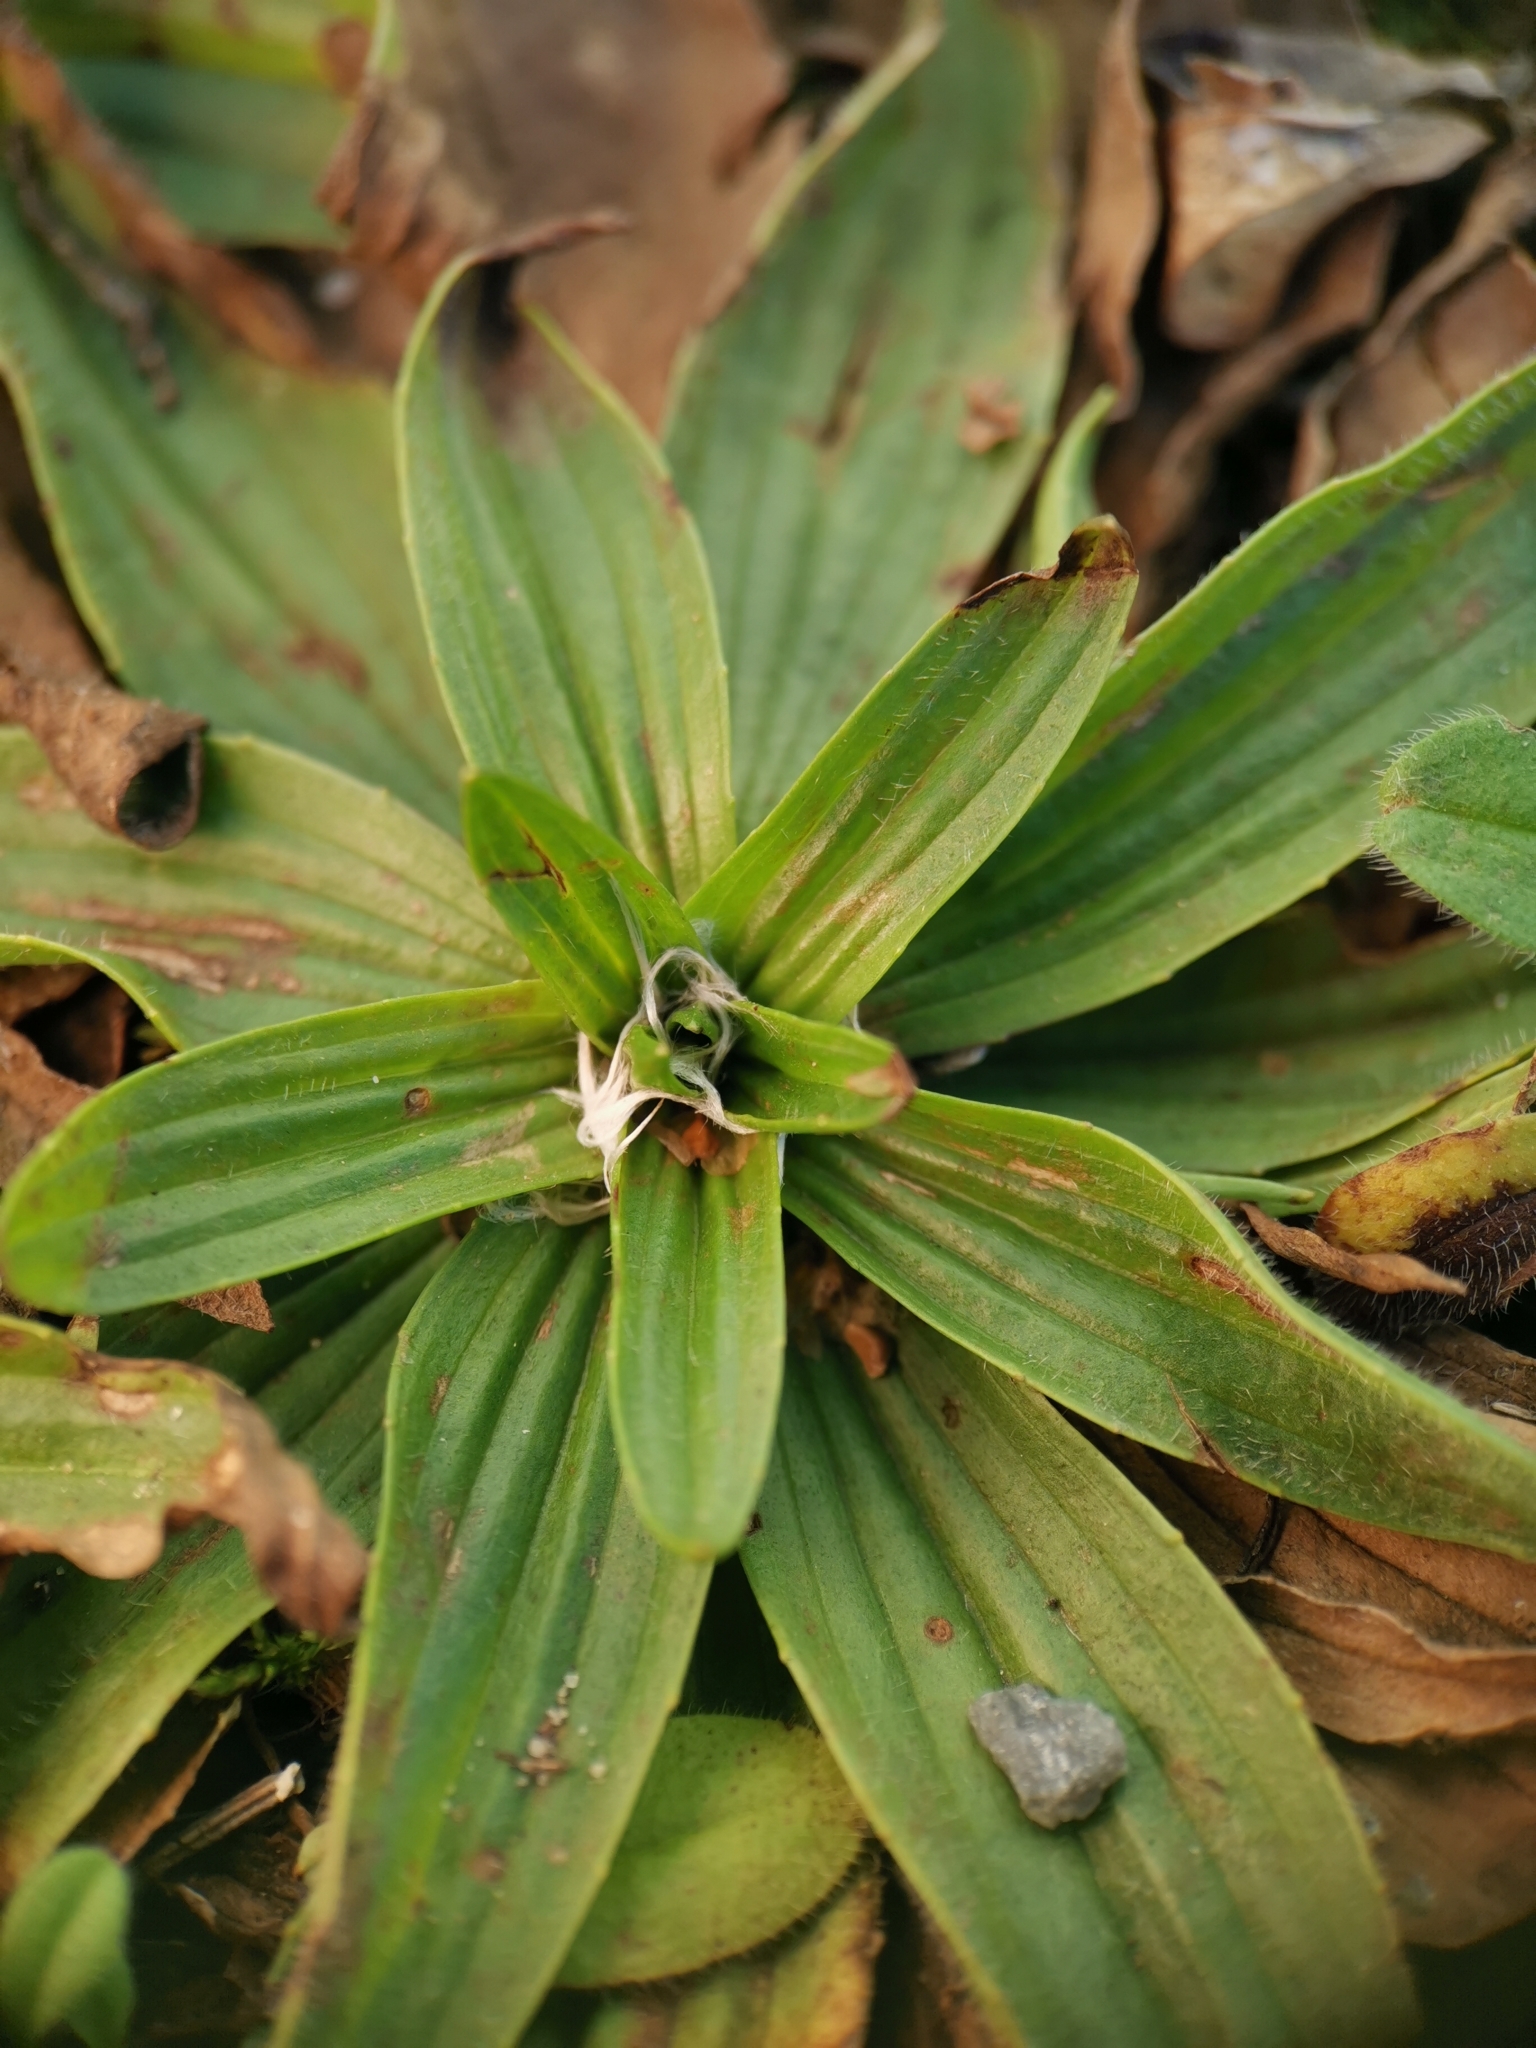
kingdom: Plantae
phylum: Tracheophyta
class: Magnoliopsida
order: Lamiales
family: Plantaginaceae
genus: Plantago
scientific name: Plantago lanceolata
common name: Ribwort plantain
